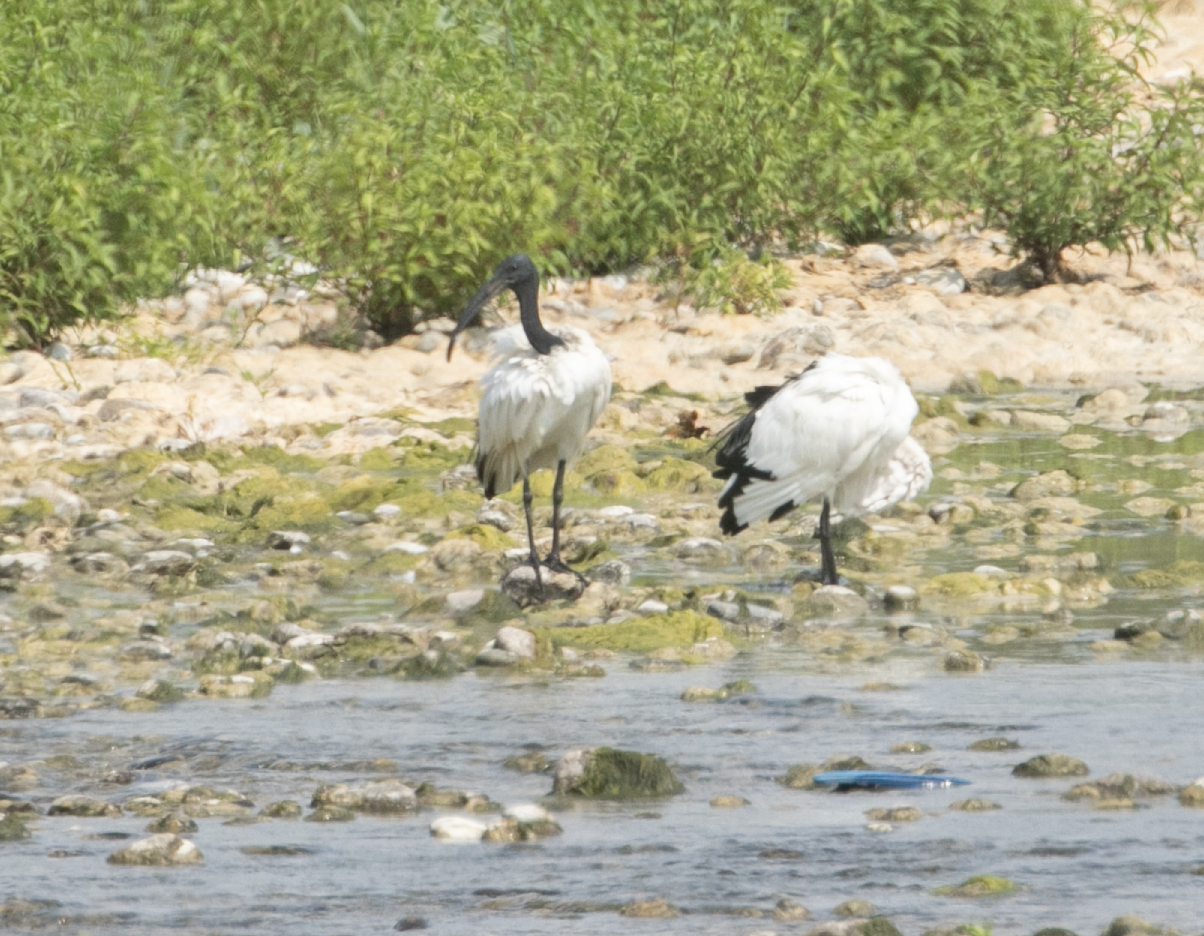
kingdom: Animalia
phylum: Chordata
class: Aves
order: Pelecaniformes
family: Threskiornithidae
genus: Threskiornis
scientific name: Threskiornis aethiopicus
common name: Sacred ibis
